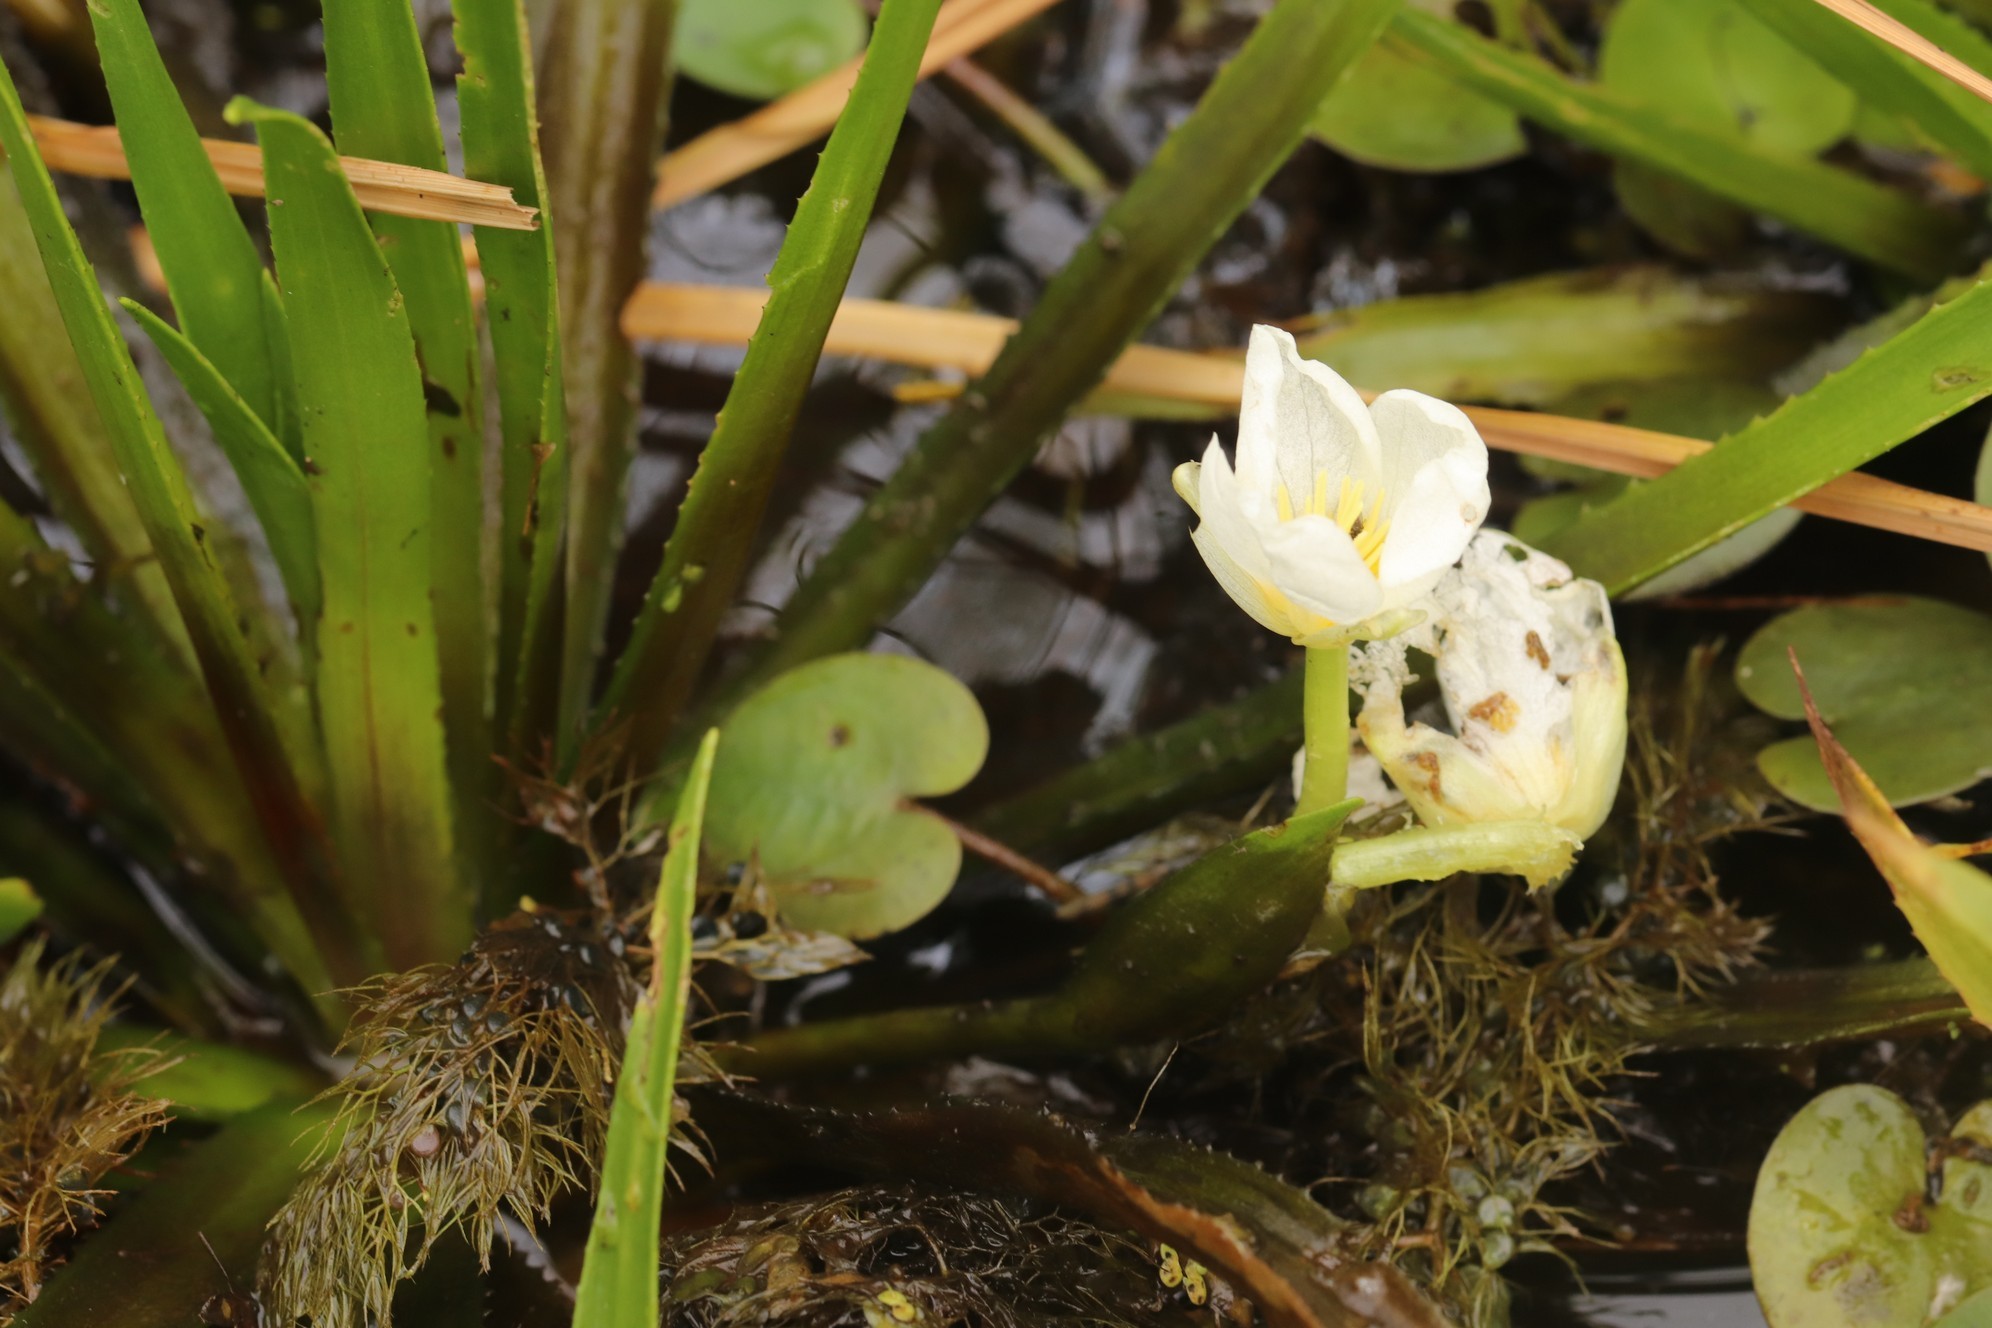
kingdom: Plantae
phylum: Tracheophyta
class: Liliopsida
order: Alismatales
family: Hydrocharitaceae
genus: Stratiotes
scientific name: Stratiotes aloides
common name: Water-soldier
